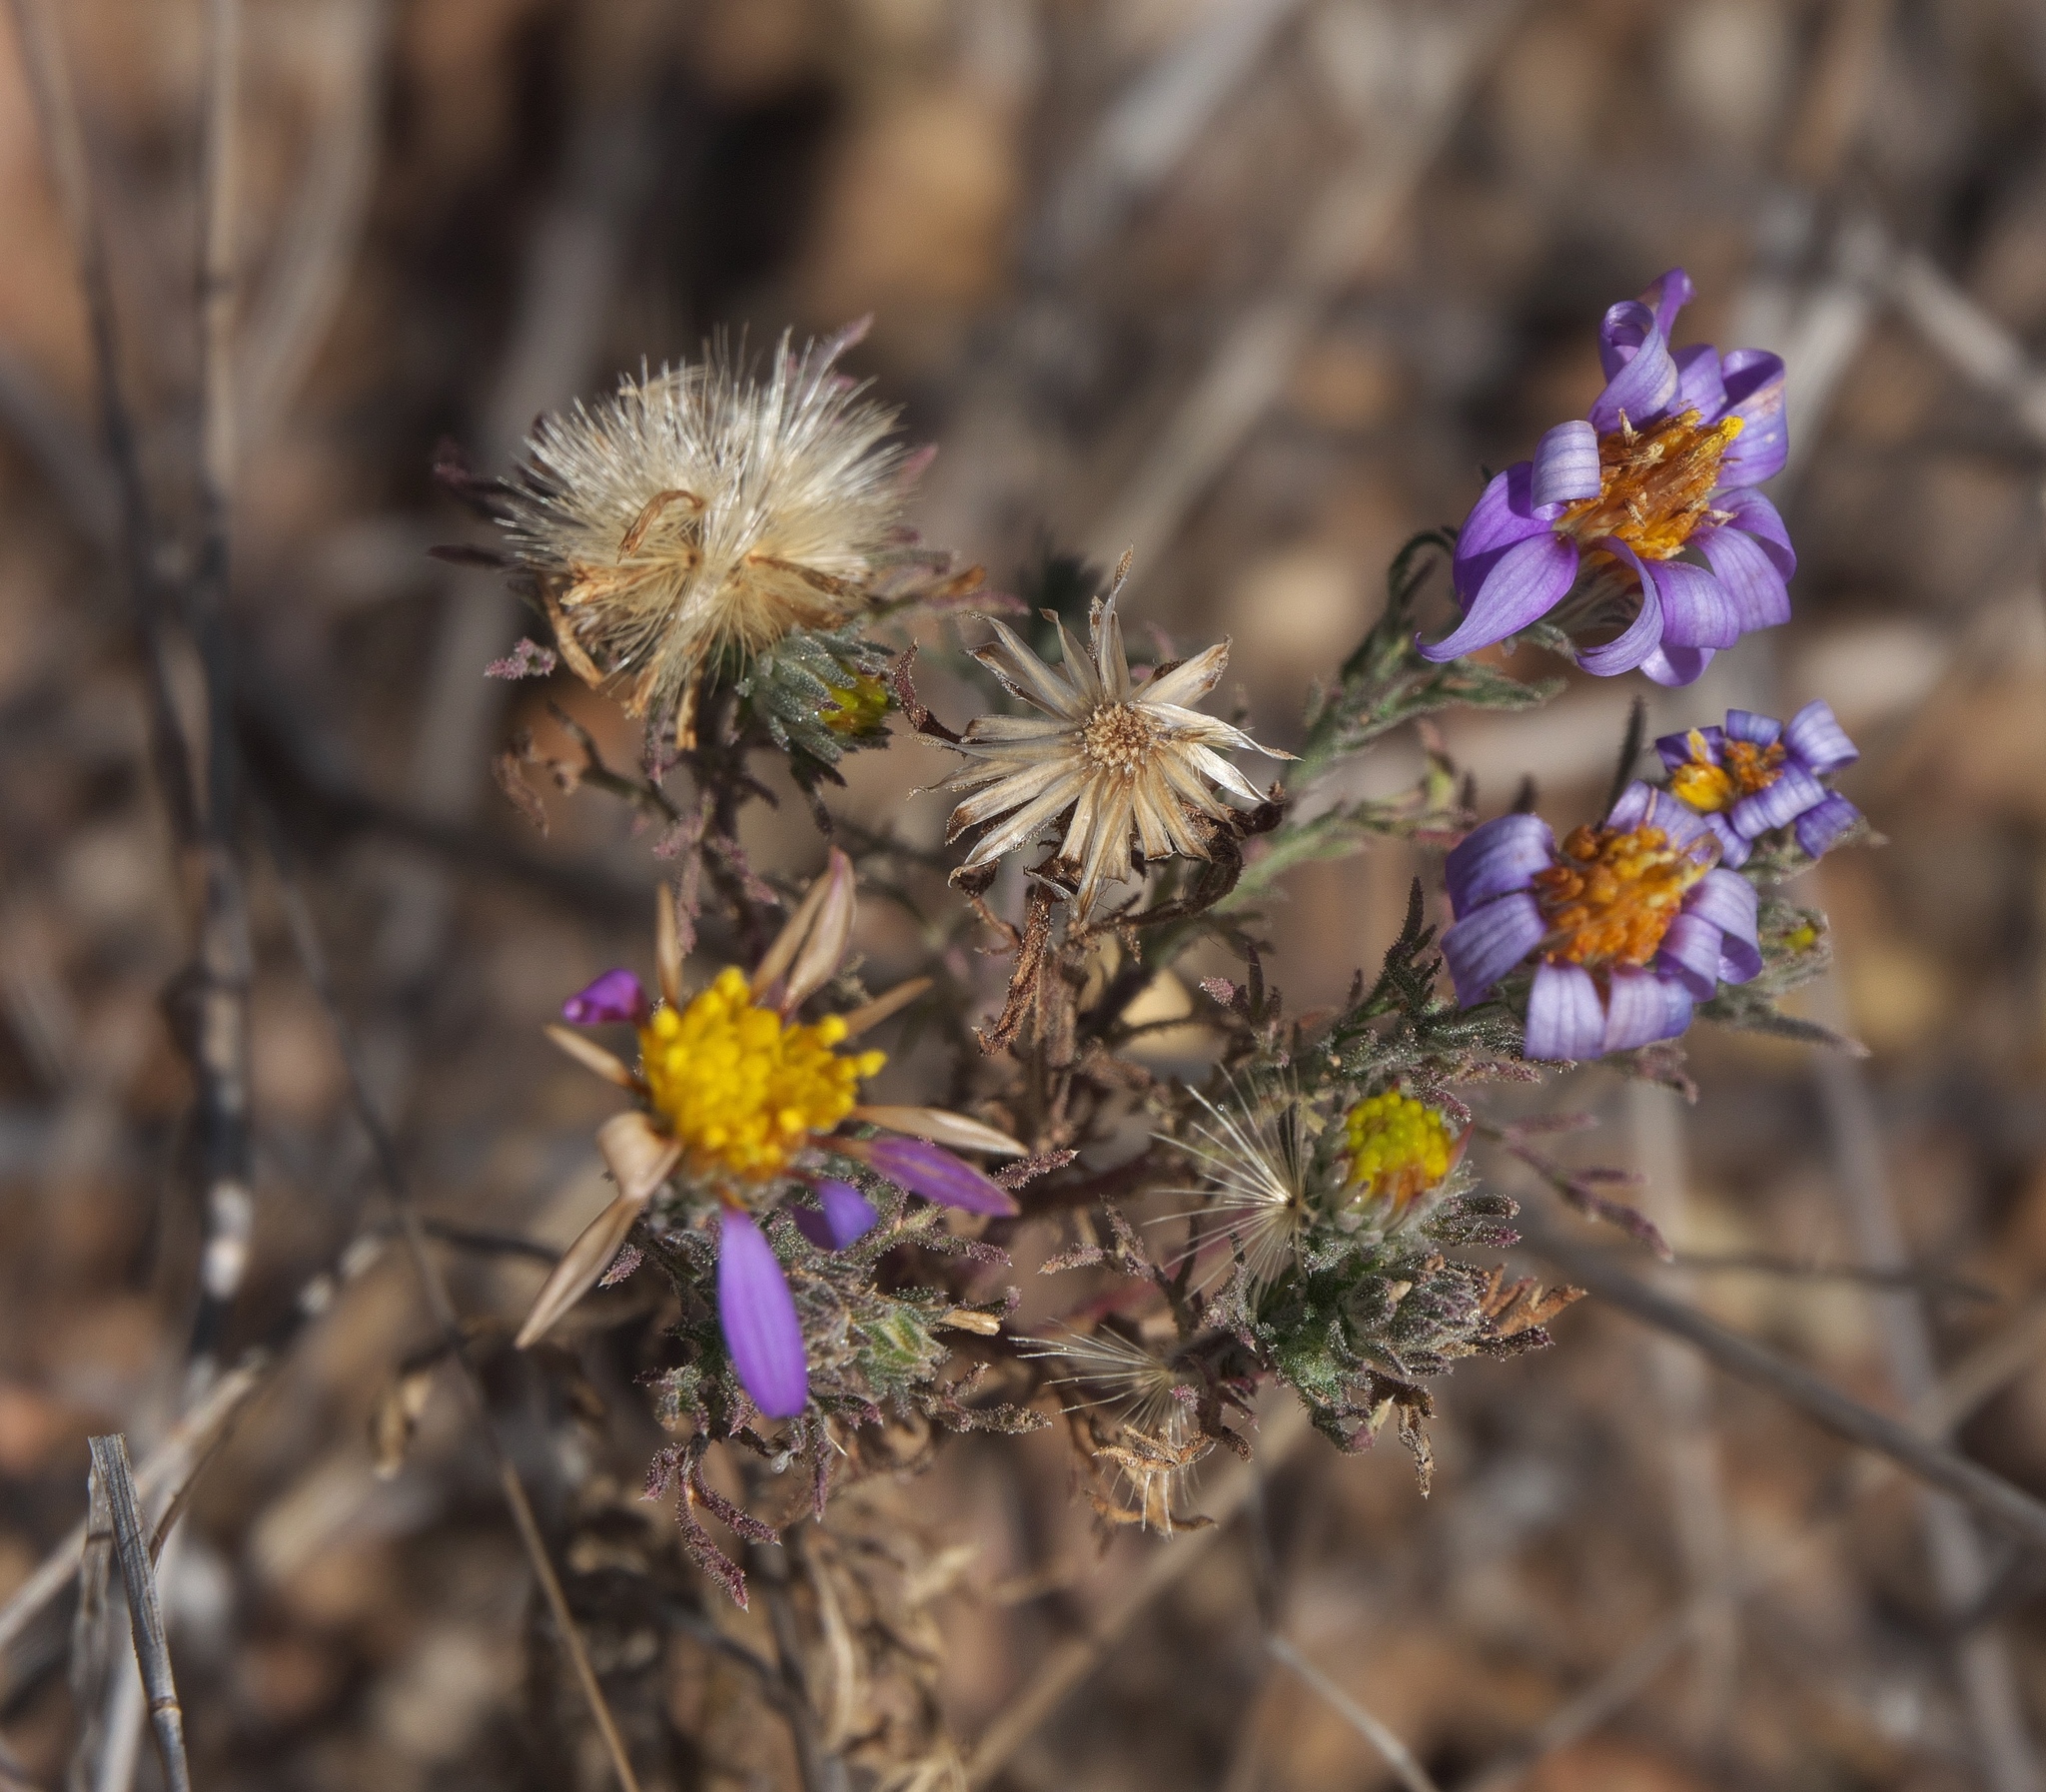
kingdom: Plantae
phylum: Tracheophyta
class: Magnoliopsida
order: Asterales
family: Asteraceae
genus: Machaeranthera
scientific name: Machaeranthera tagetina
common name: Mesa tansy-aster
